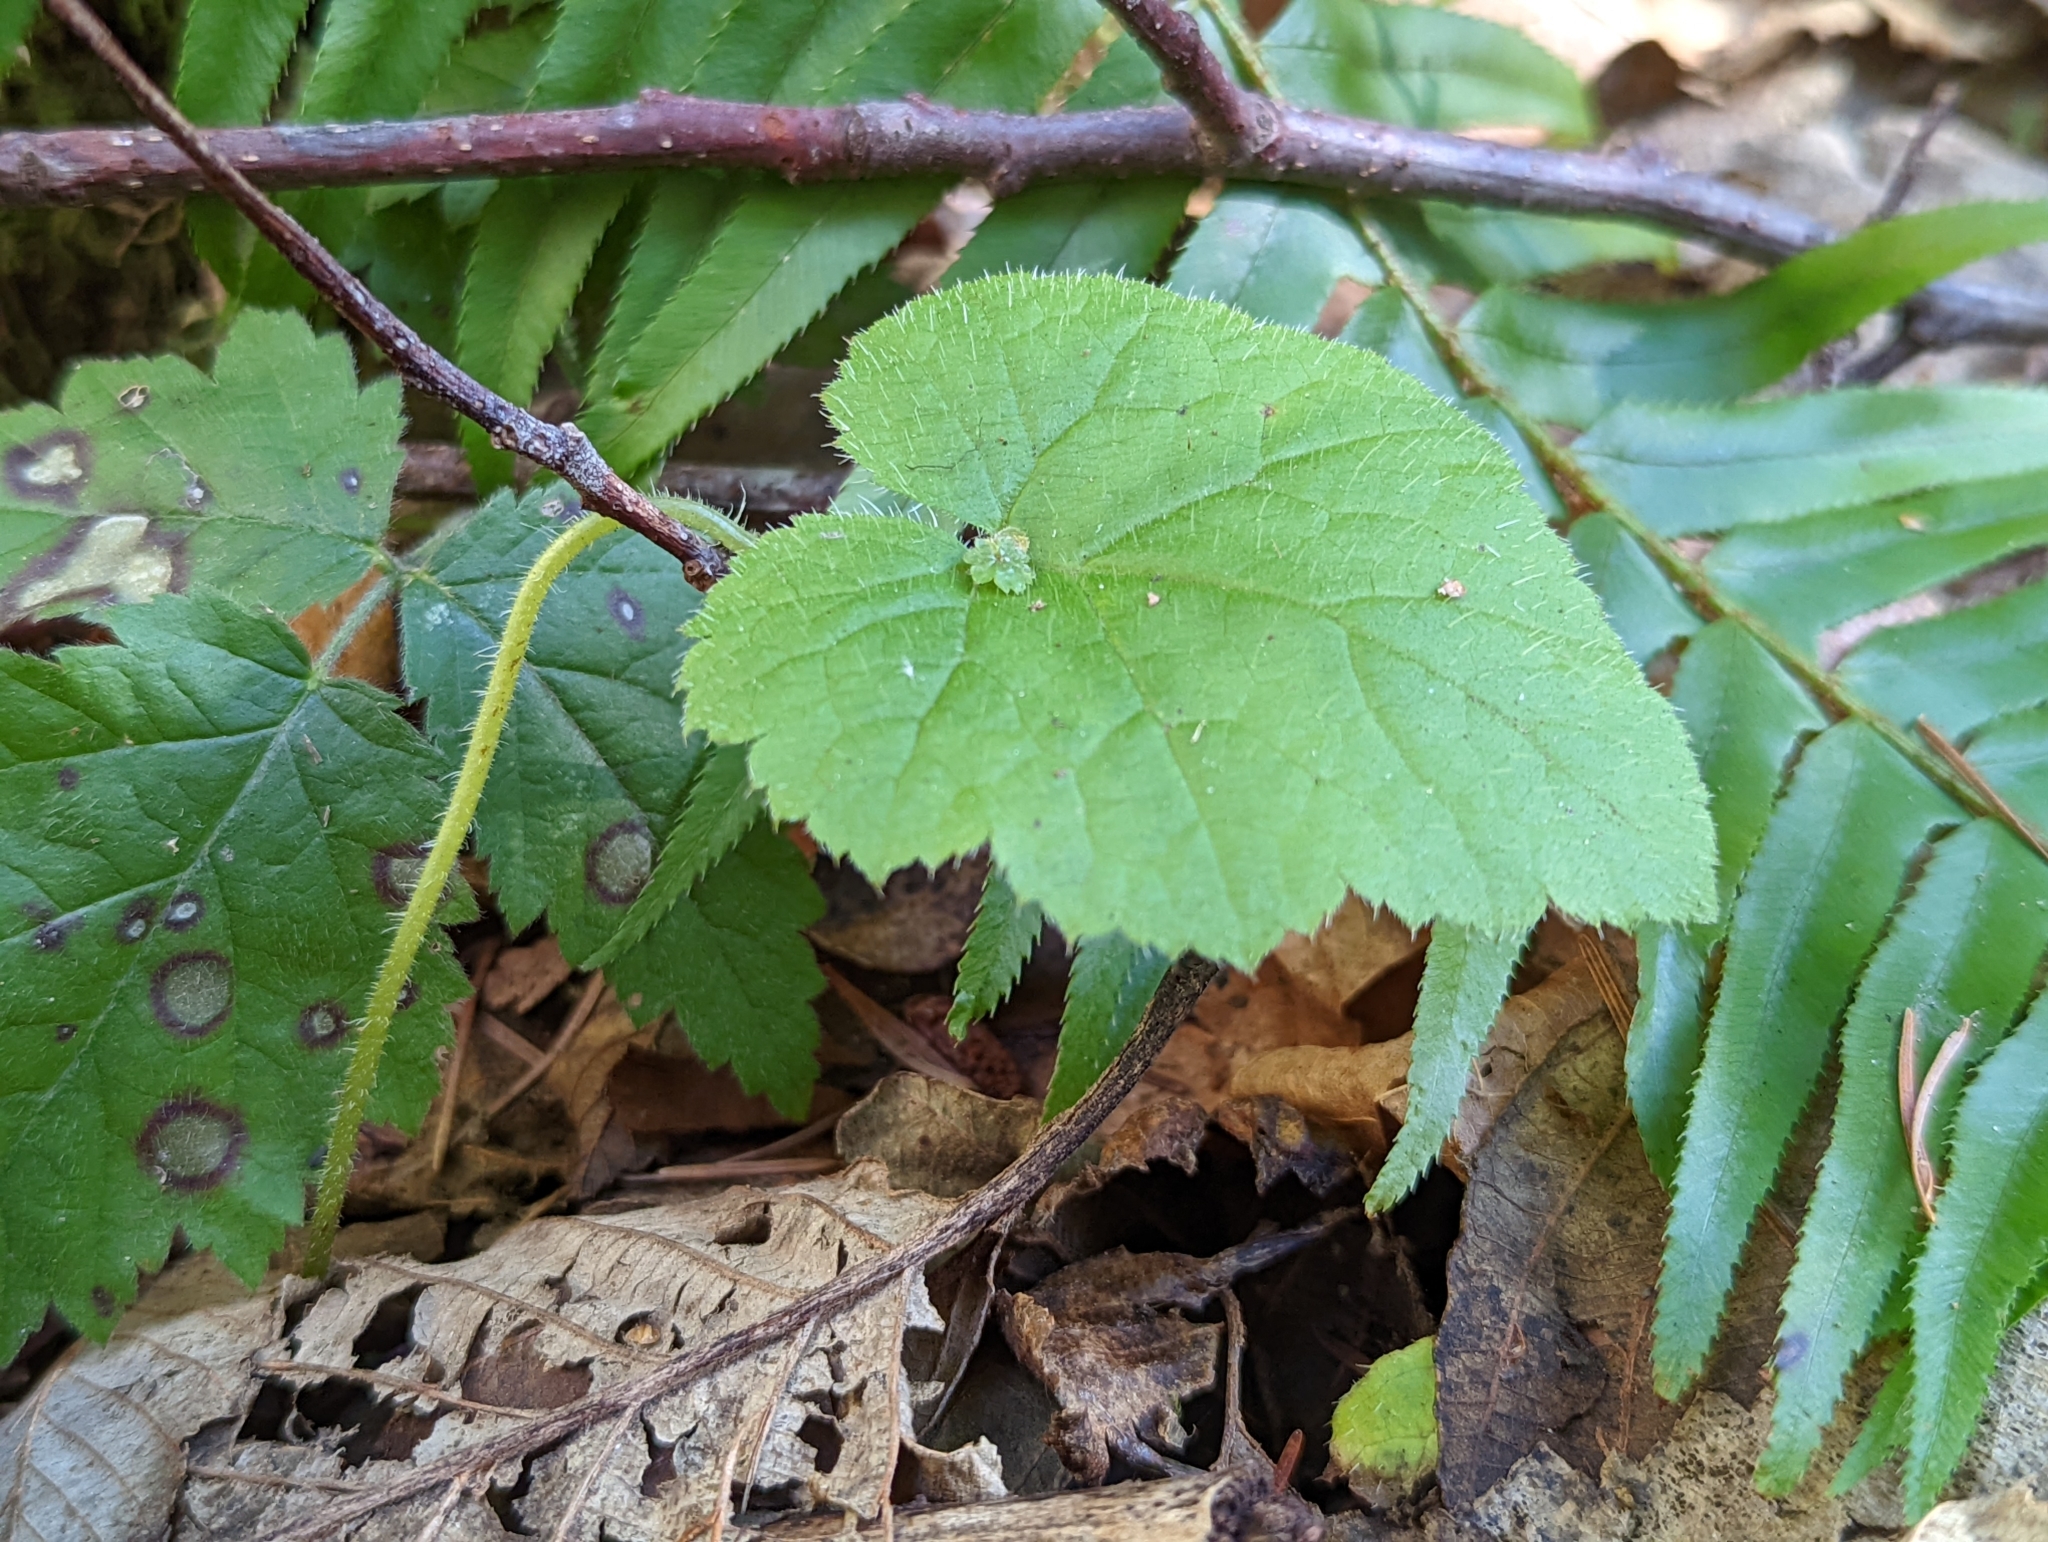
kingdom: Plantae
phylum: Tracheophyta
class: Magnoliopsida
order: Saxifragales
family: Saxifragaceae
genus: Tolmiea
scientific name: Tolmiea menziesii
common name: Pick-a-back-plant
